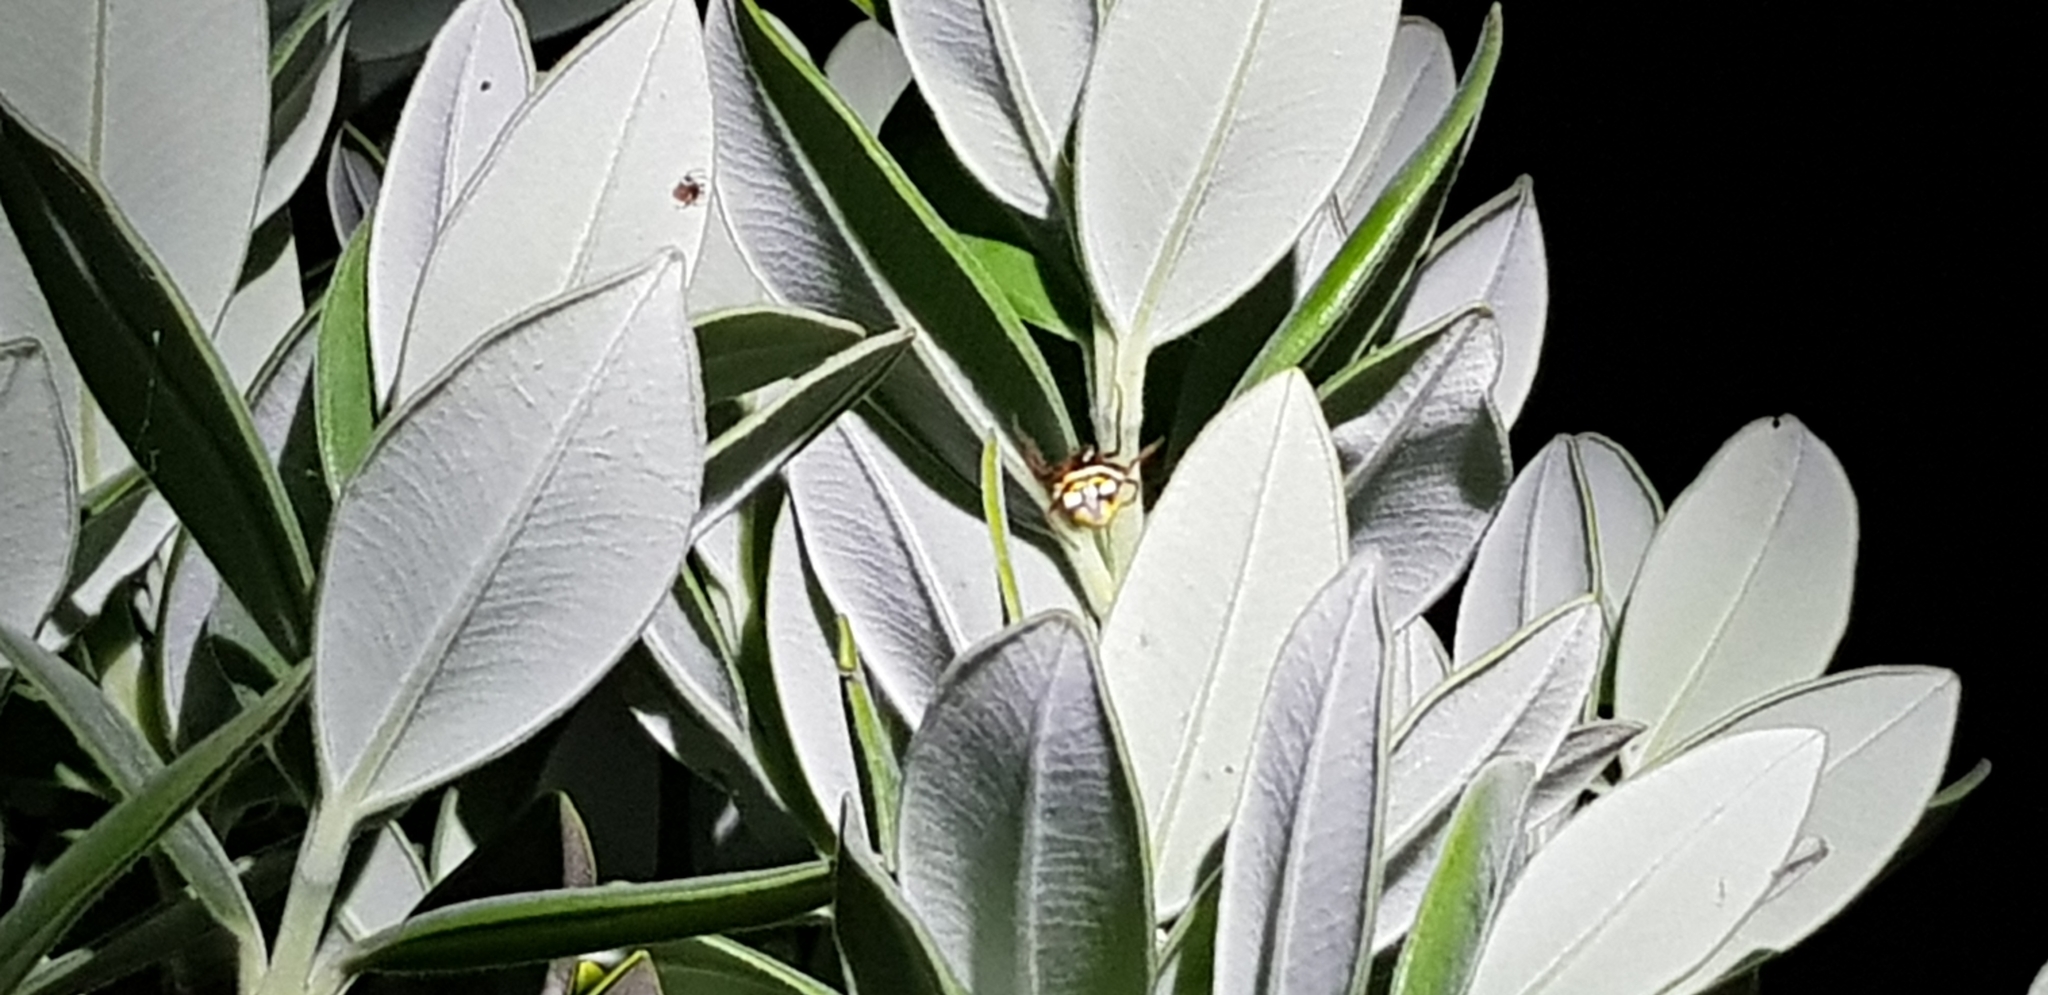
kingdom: Animalia
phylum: Arthropoda
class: Arachnida
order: Araneae
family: Araneidae
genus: Poecilopachys
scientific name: Poecilopachys australasia
